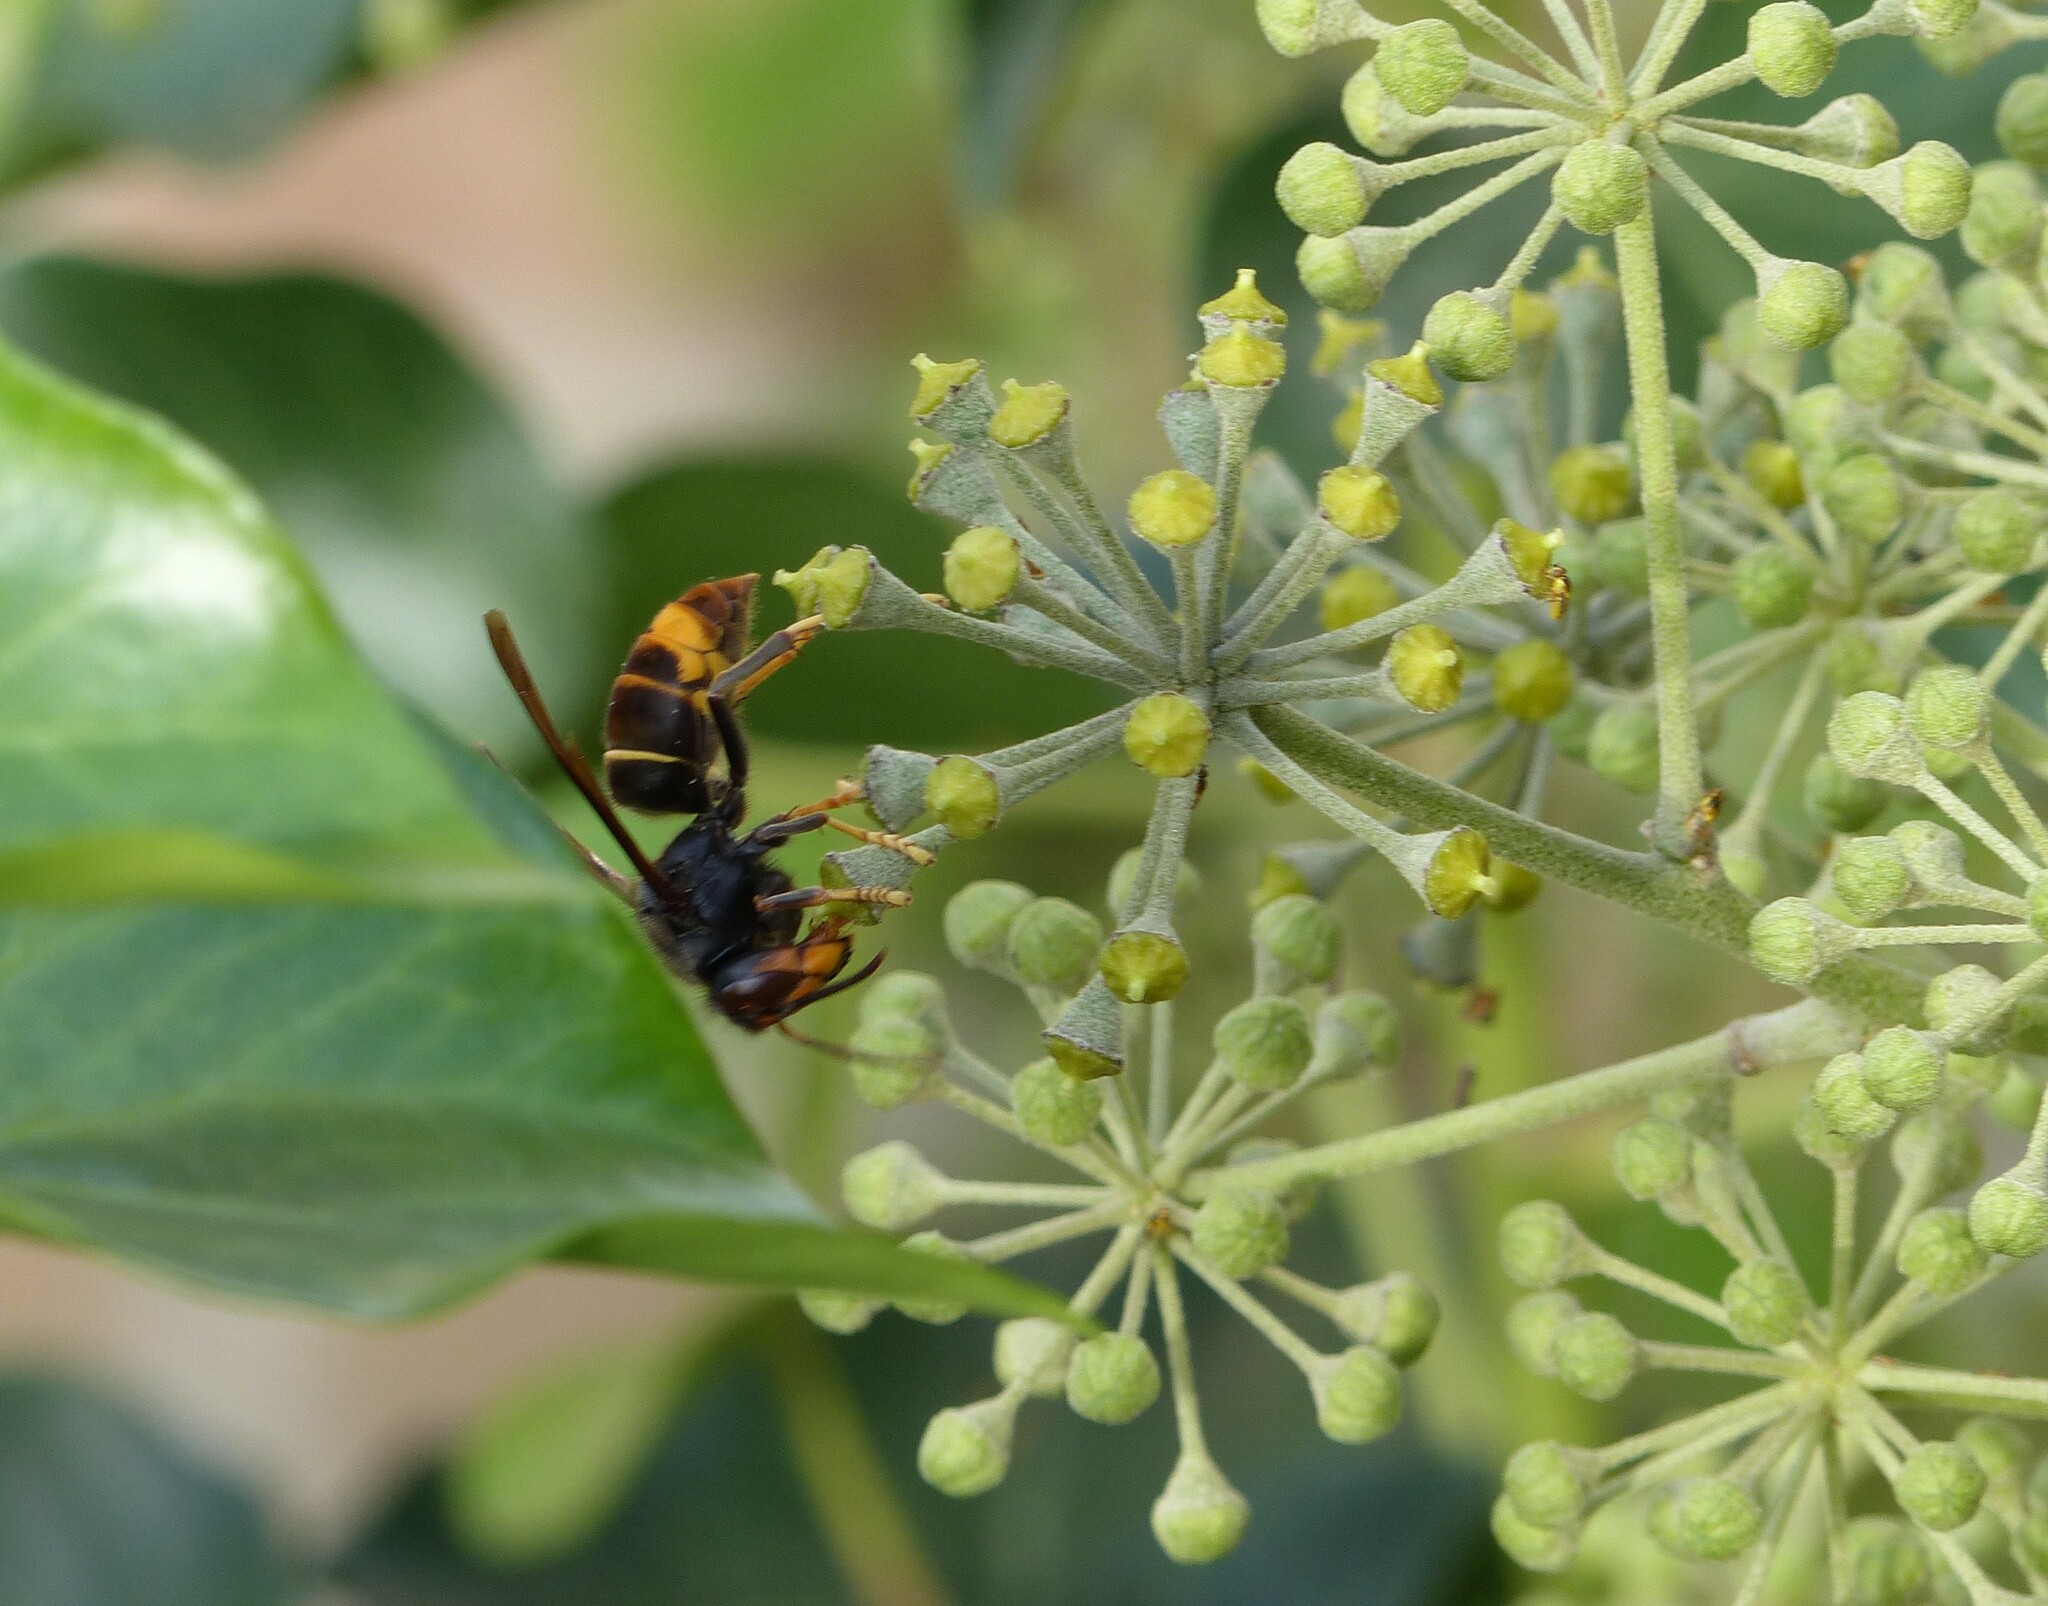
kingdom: Animalia
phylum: Arthropoda
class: Insecta
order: Hymenoptera
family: Vespidae
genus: Vespa
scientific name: Vespa velutina
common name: Asian hornet
